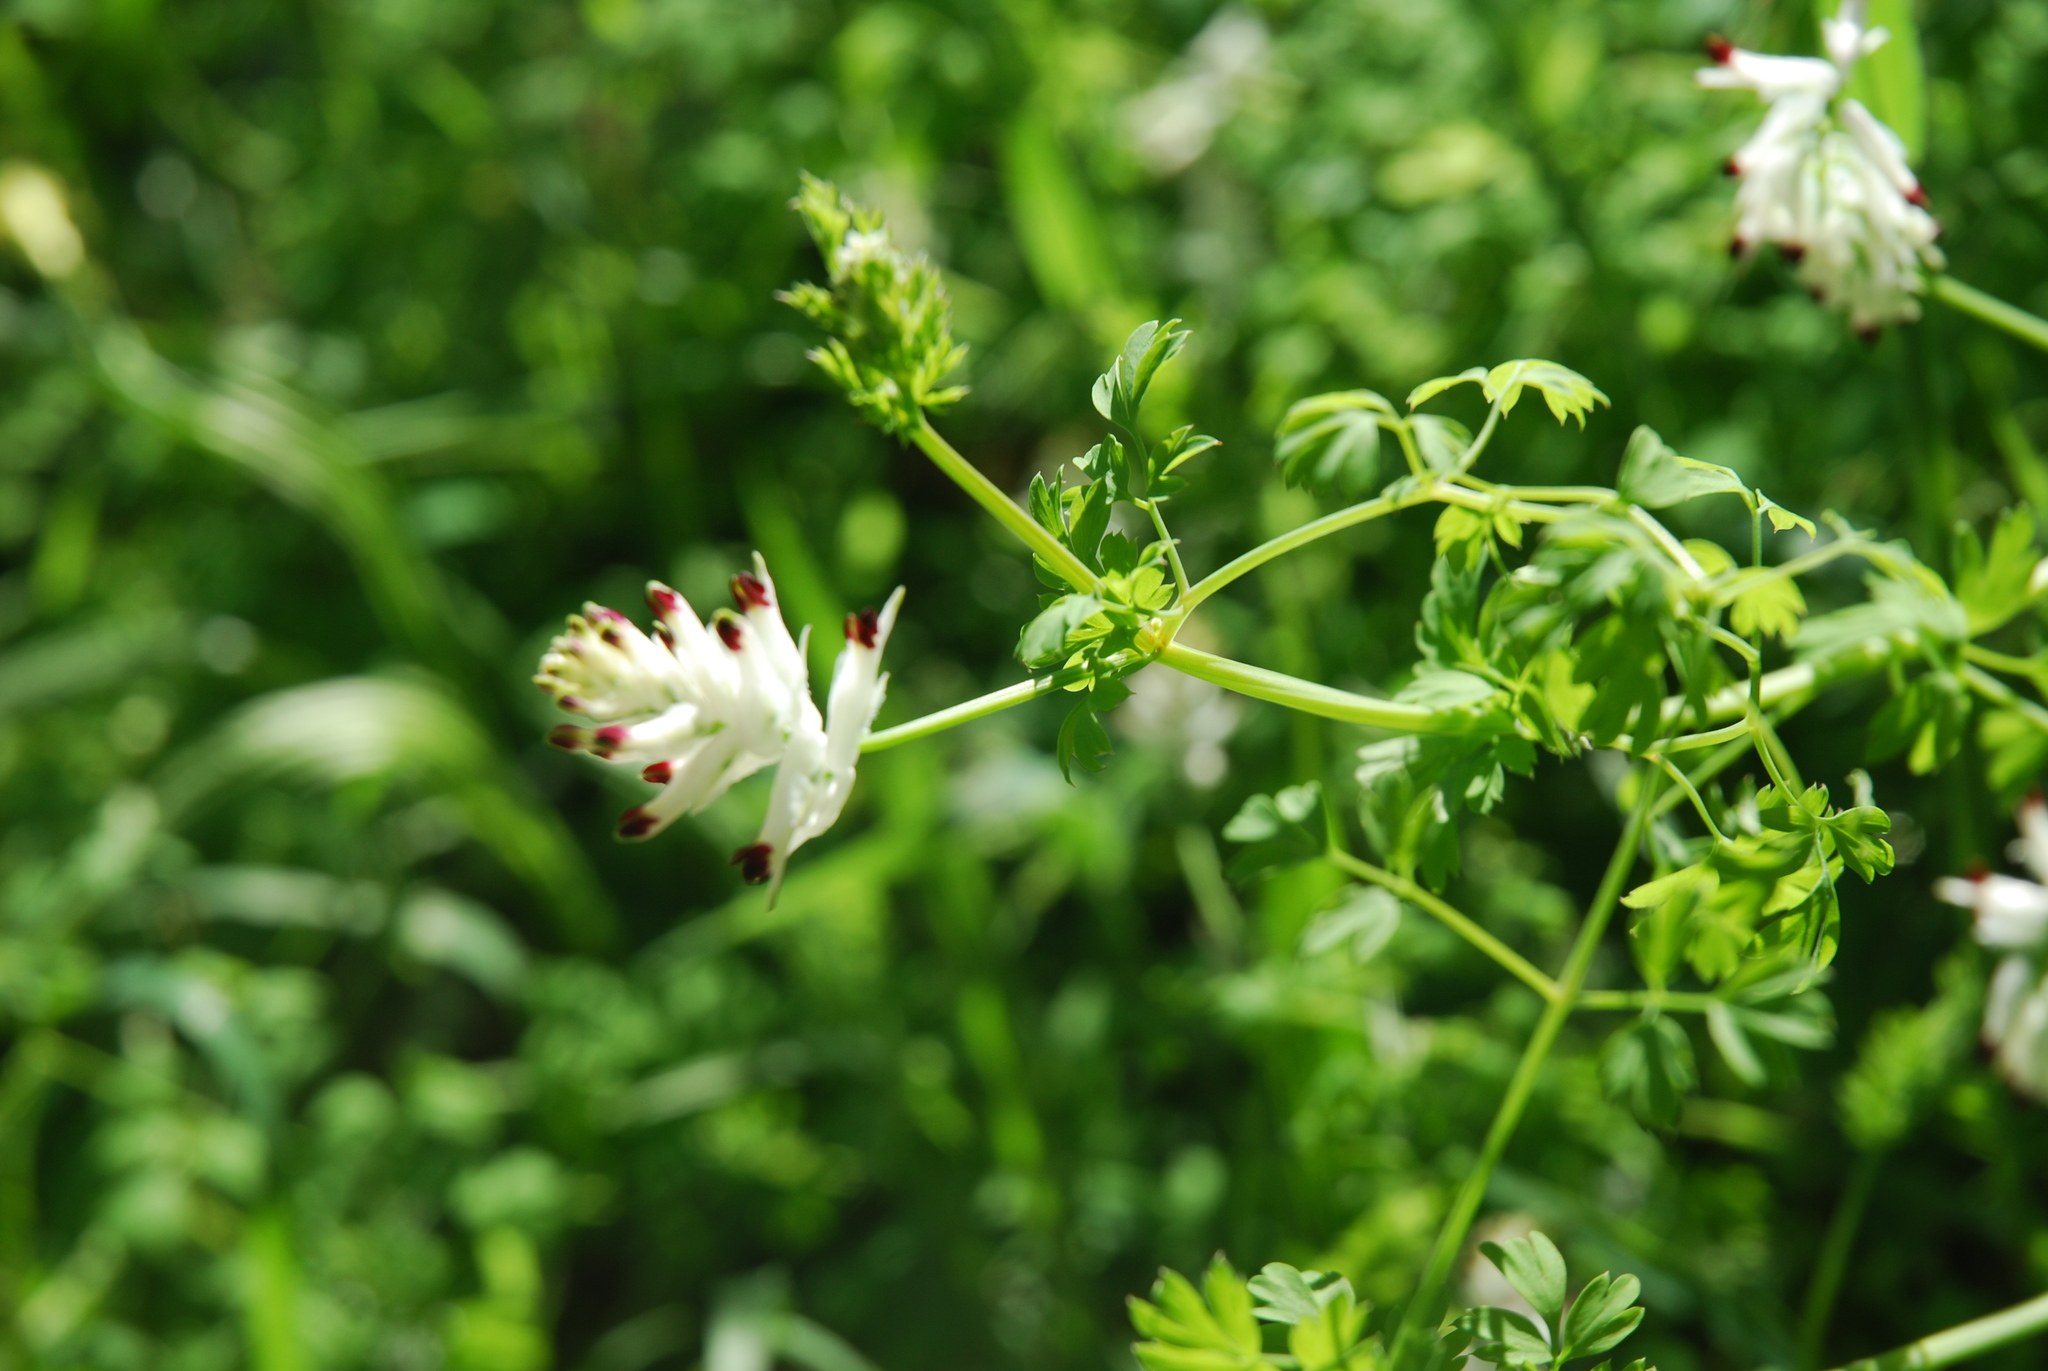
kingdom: Plantae
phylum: Tracheophyta
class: Magnoliopsida
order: Ranunculales
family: Papaveraceae
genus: Fumaria
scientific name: Fumaria capreolata
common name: White ramping-fumitory
